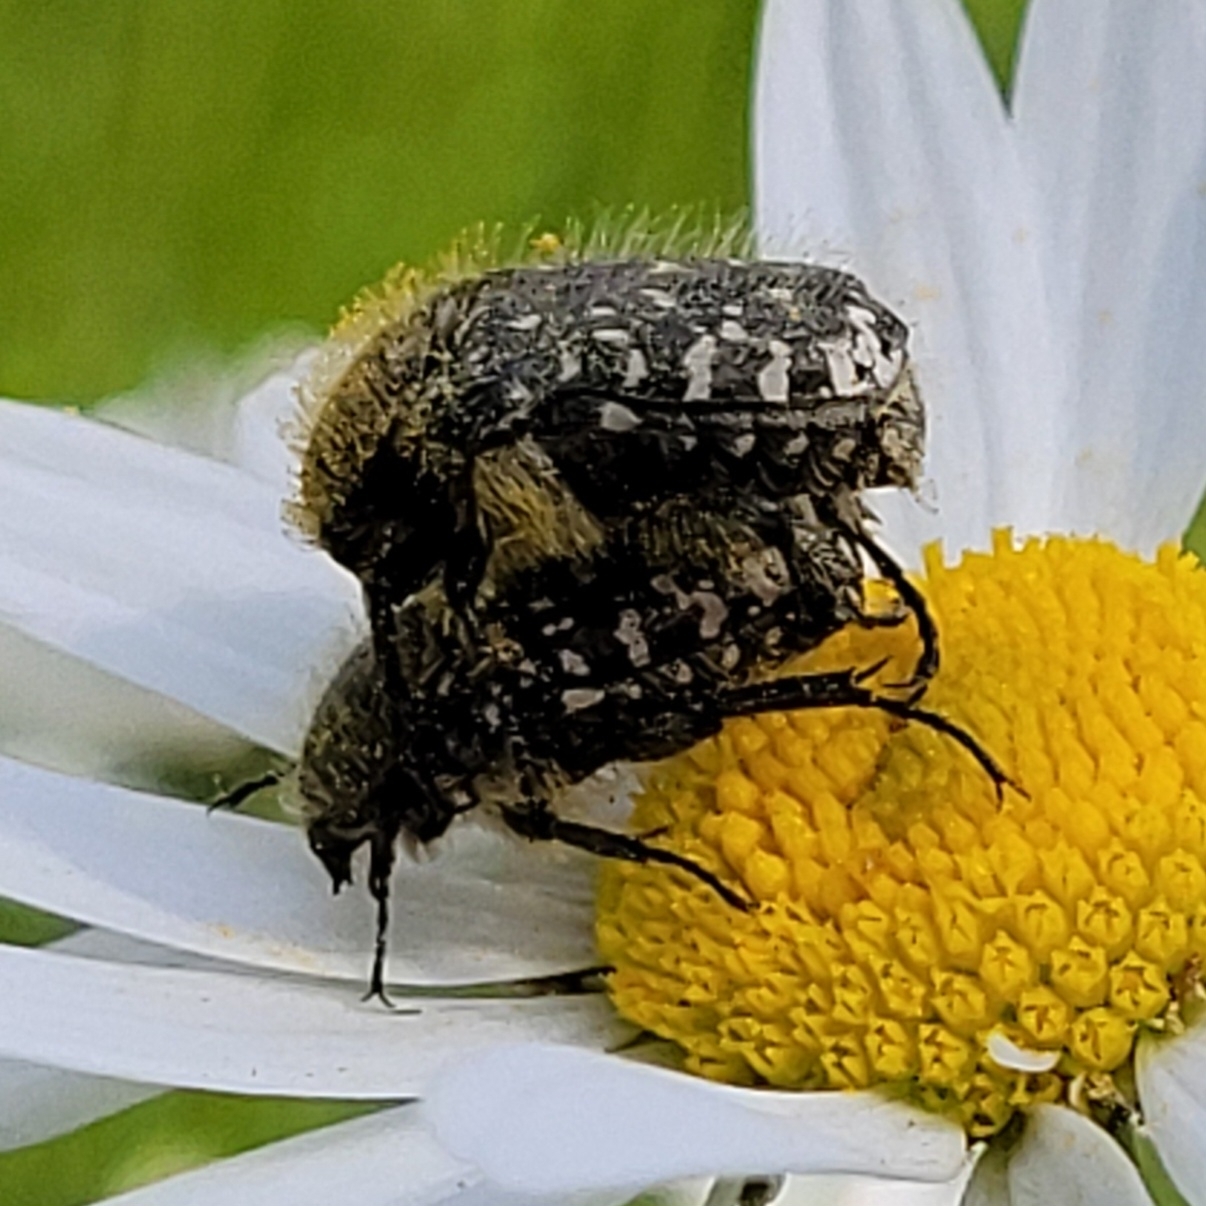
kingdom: Animalia
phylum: Arthropoda
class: Insecta
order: Coleoptera
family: Scarabaeidae
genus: Oxythyrea
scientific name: Oxythyrea funesta
